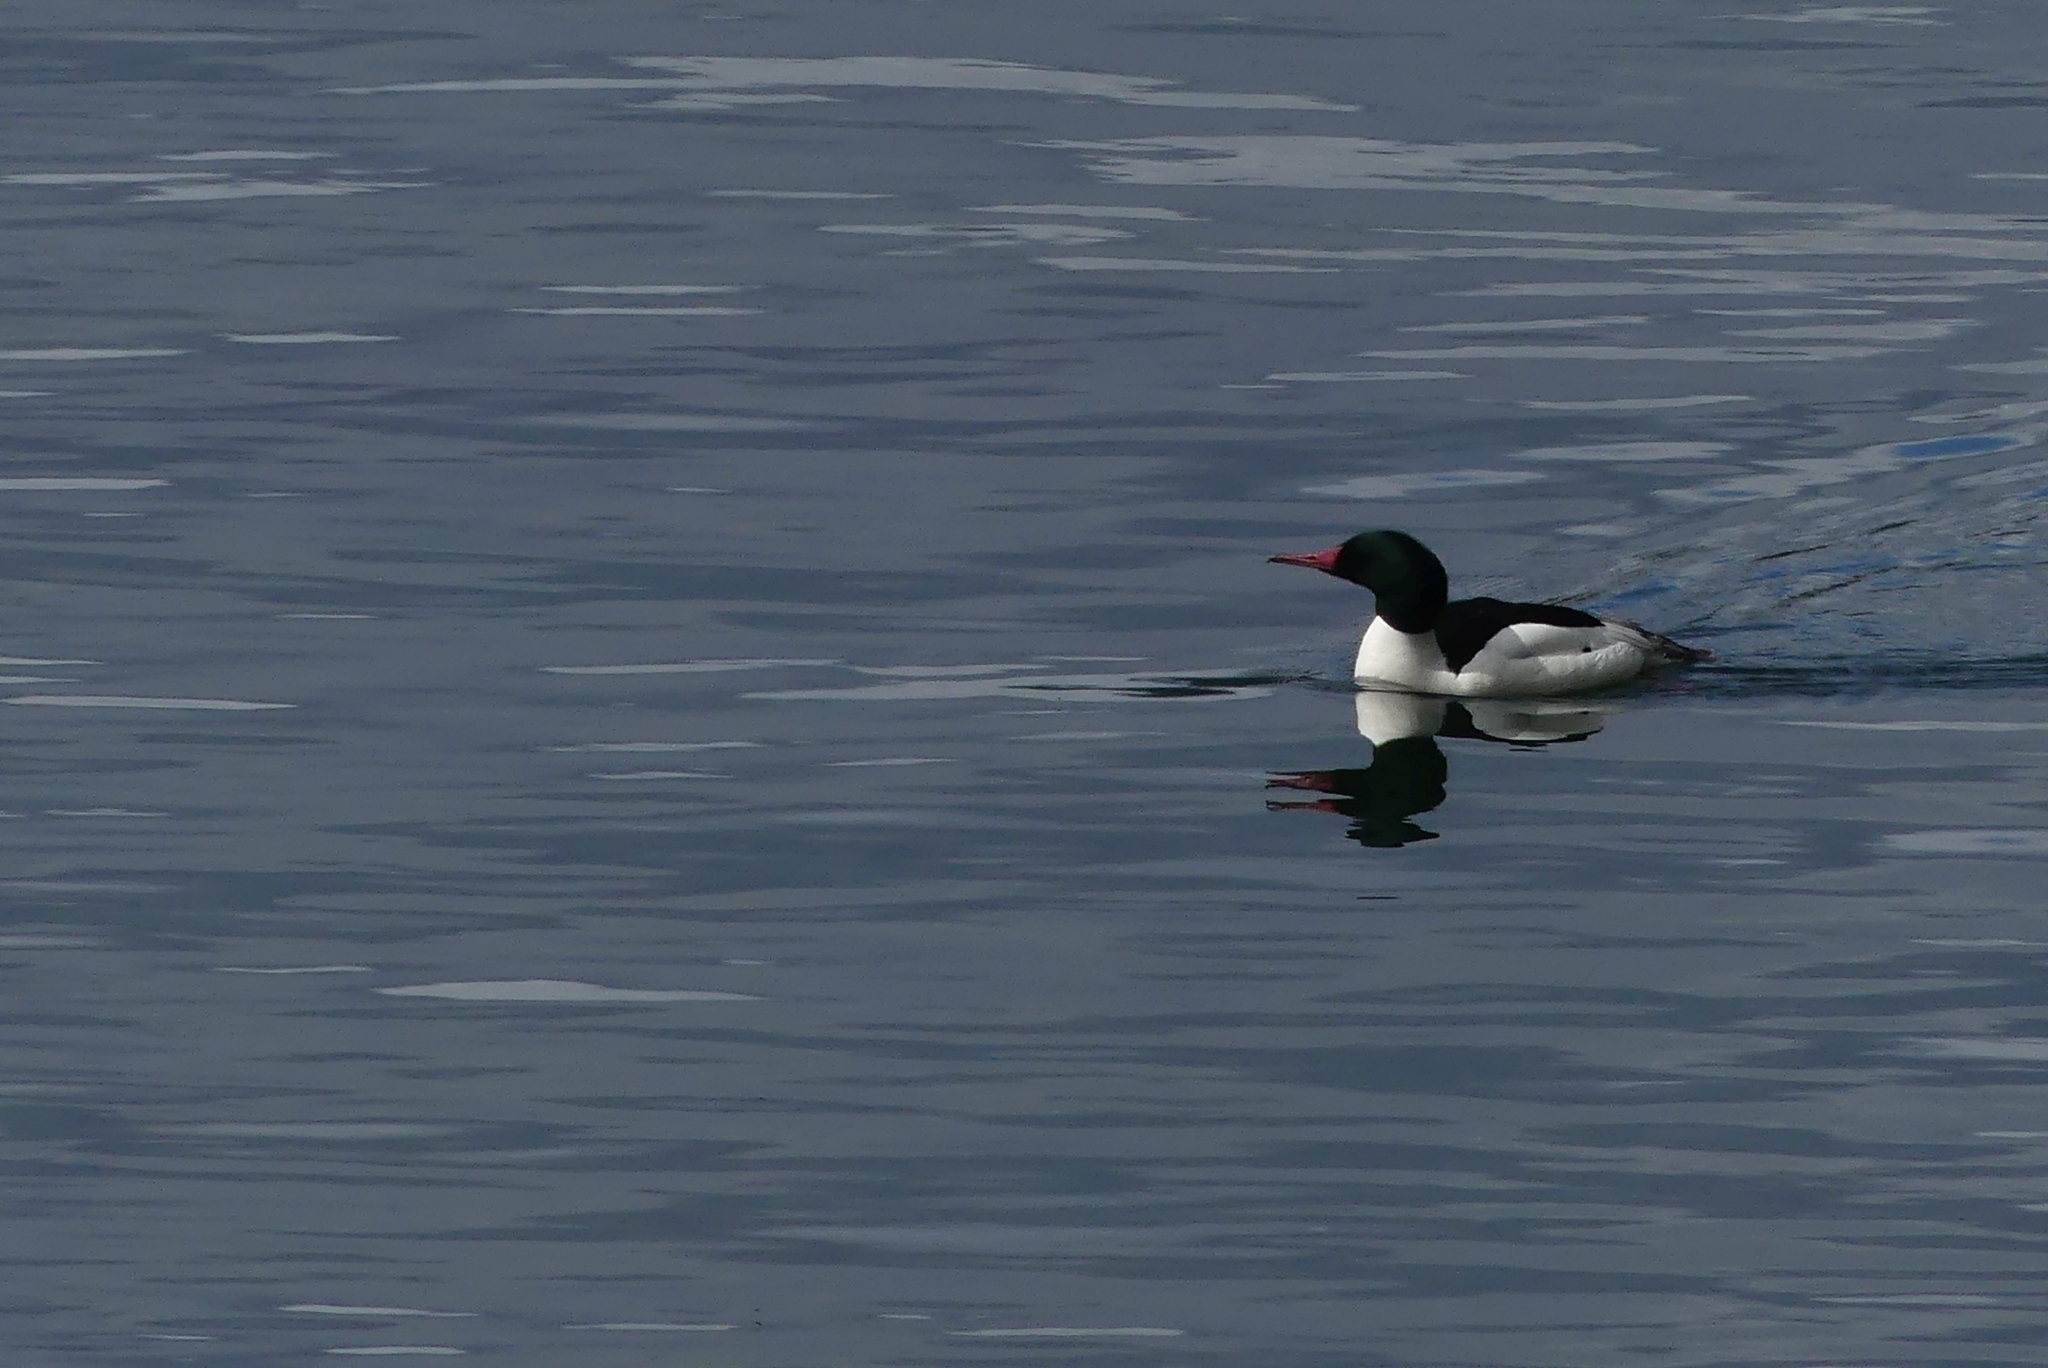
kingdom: Animalia
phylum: Chordata
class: Aves
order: Anseriformes
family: Anatidae
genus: Mergus
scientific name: Mergus merganser
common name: Common merganser
